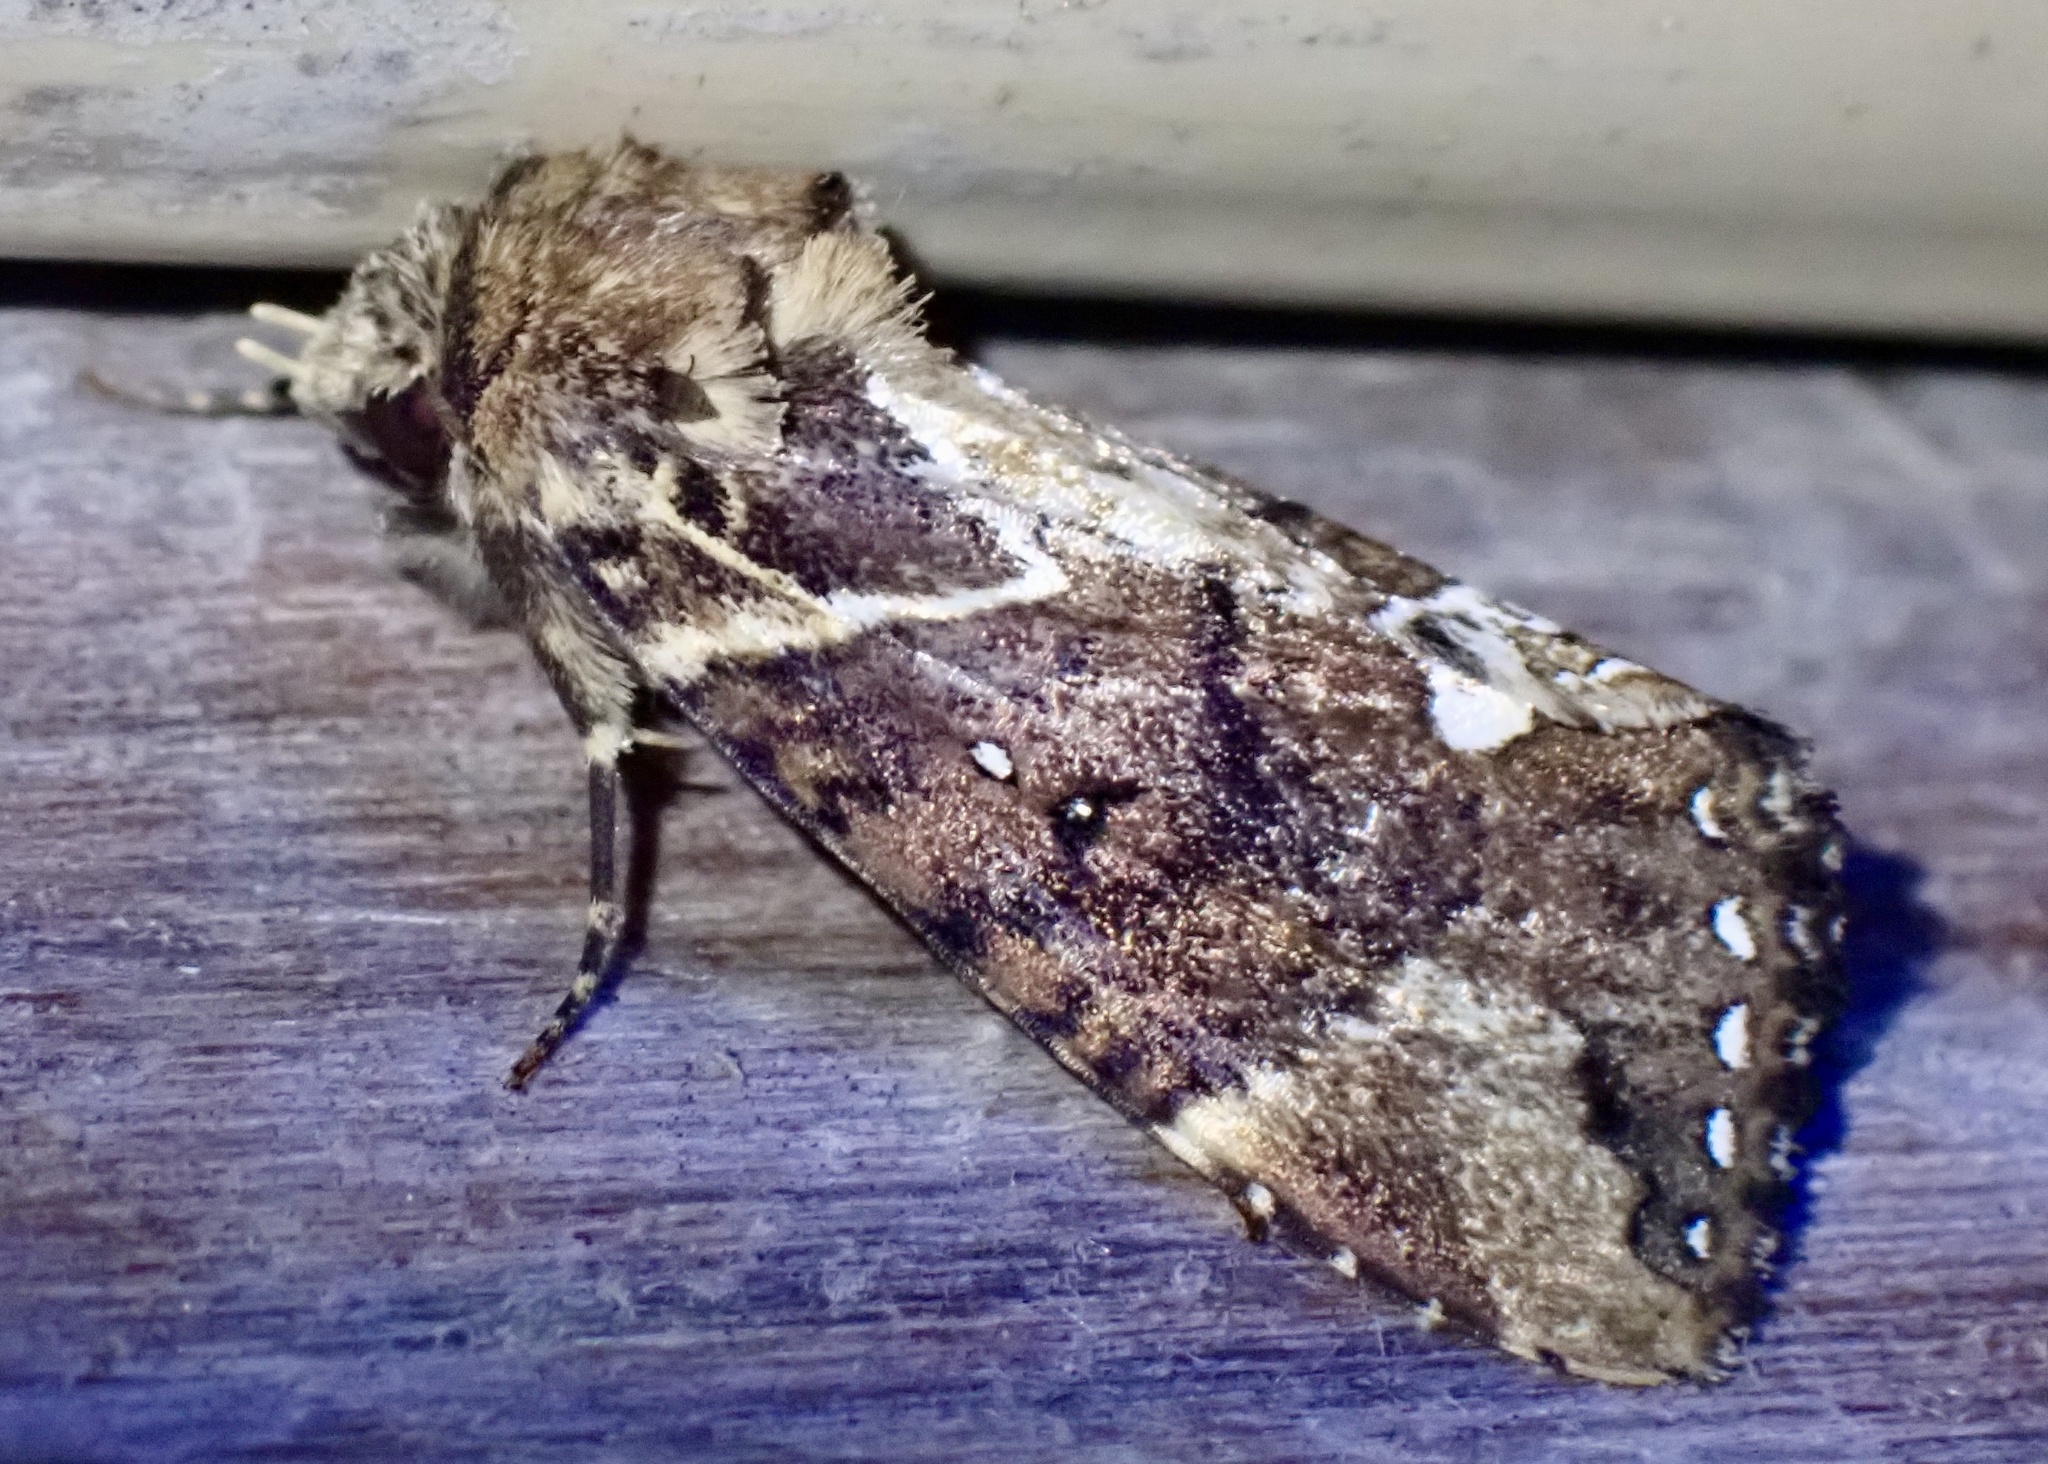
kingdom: Animalia
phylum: Arthropoda
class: Insecta
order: Lepidoptera
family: Drepanidae
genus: Habrona
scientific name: Habrona brunnea
